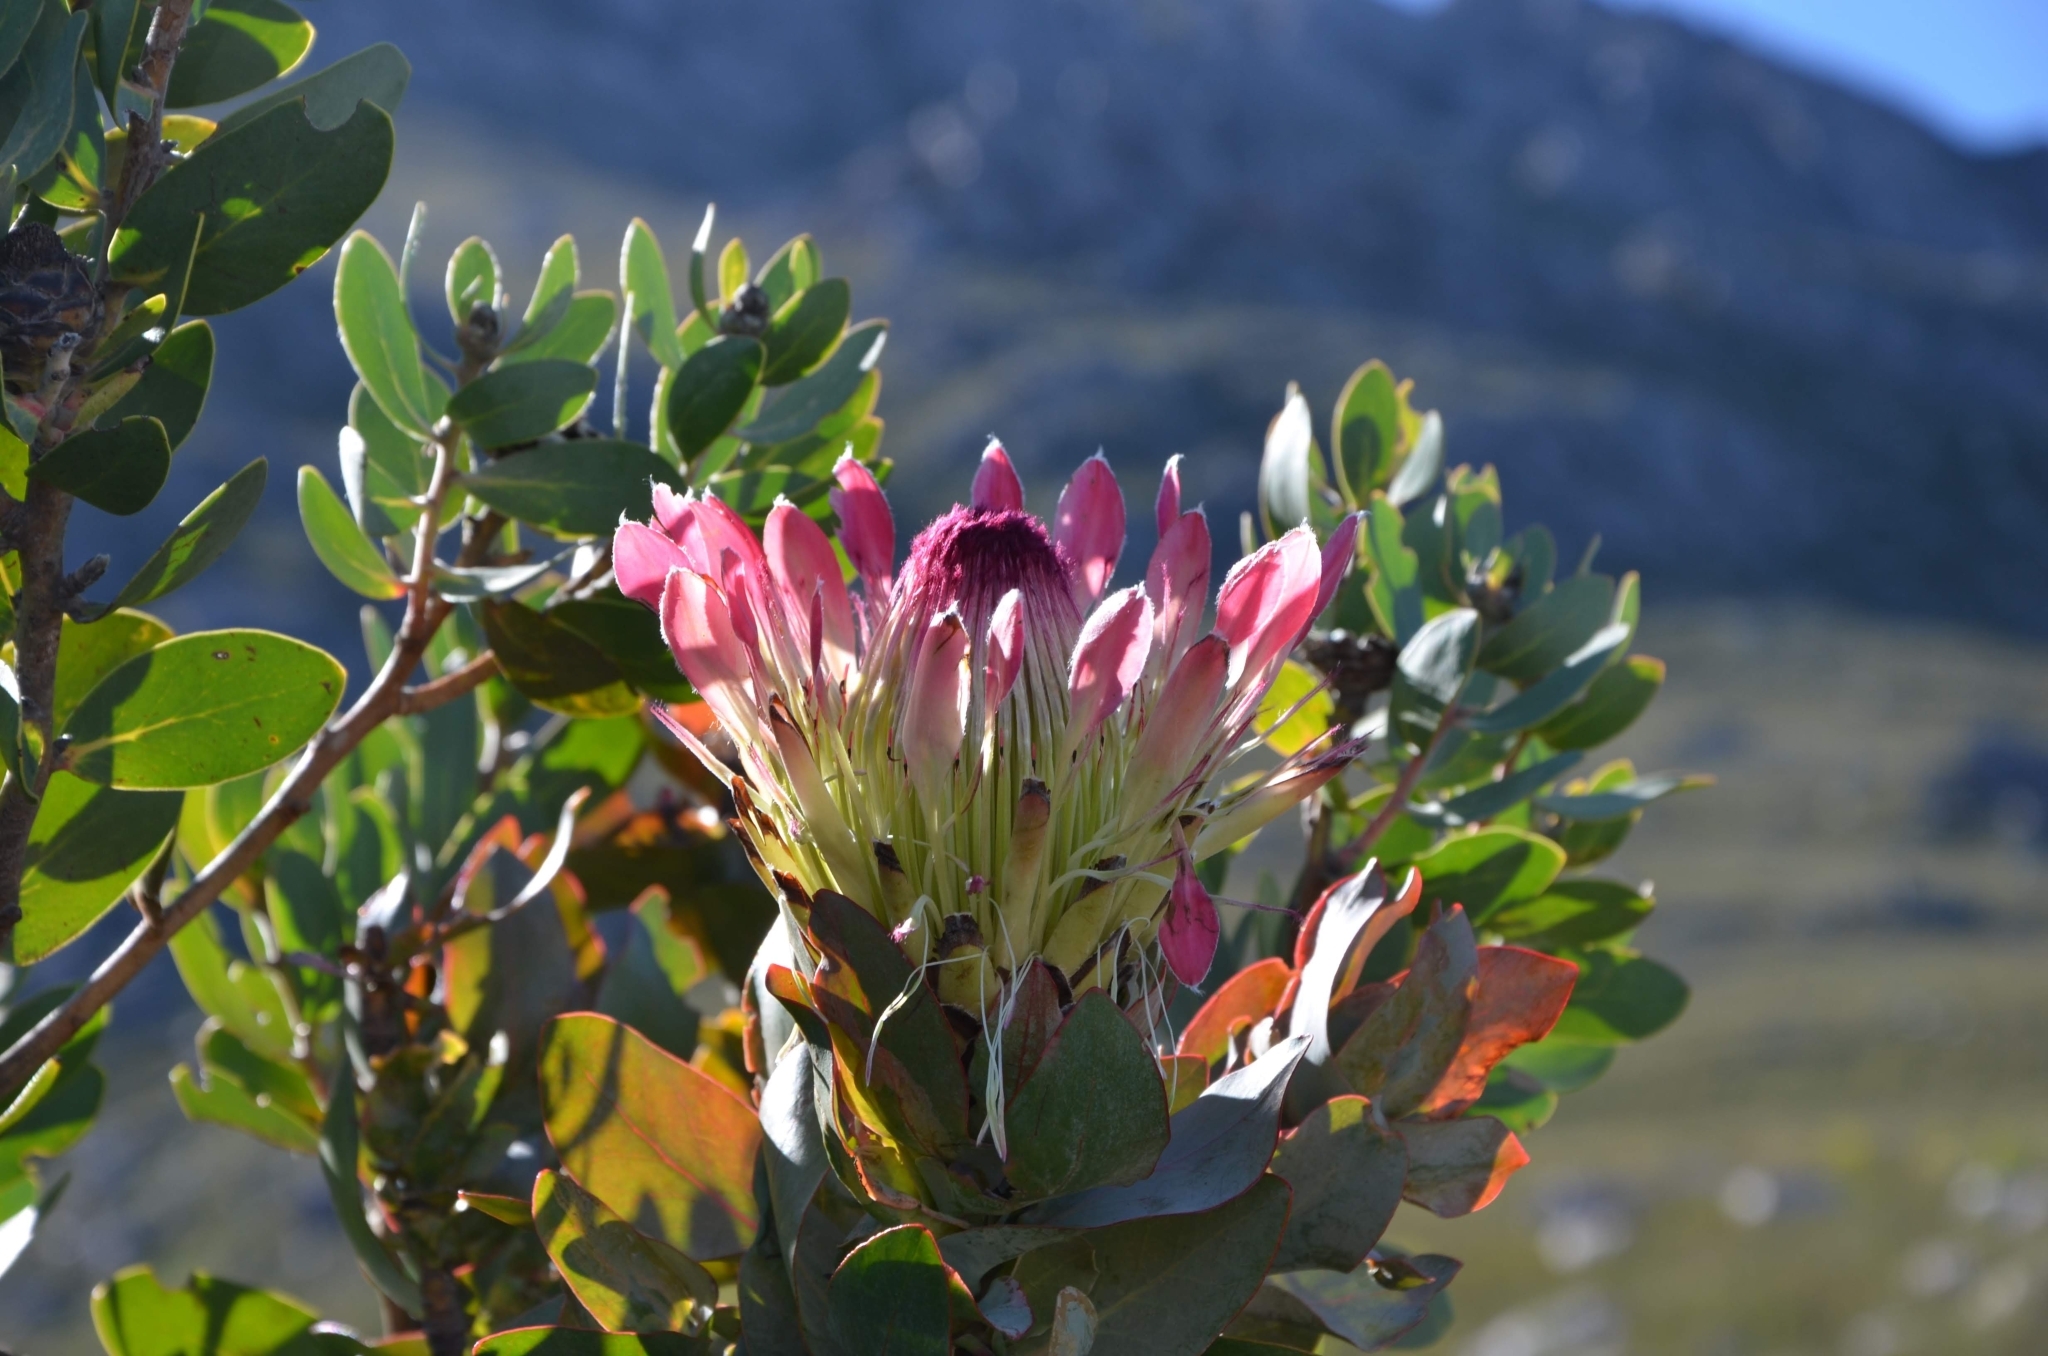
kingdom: Plantae
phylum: Tracheophyta
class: Magnoliopsida
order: Proteales
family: Proteaceae
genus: Protea
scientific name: Protea eximia
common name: Broad-leaved sugarbush
